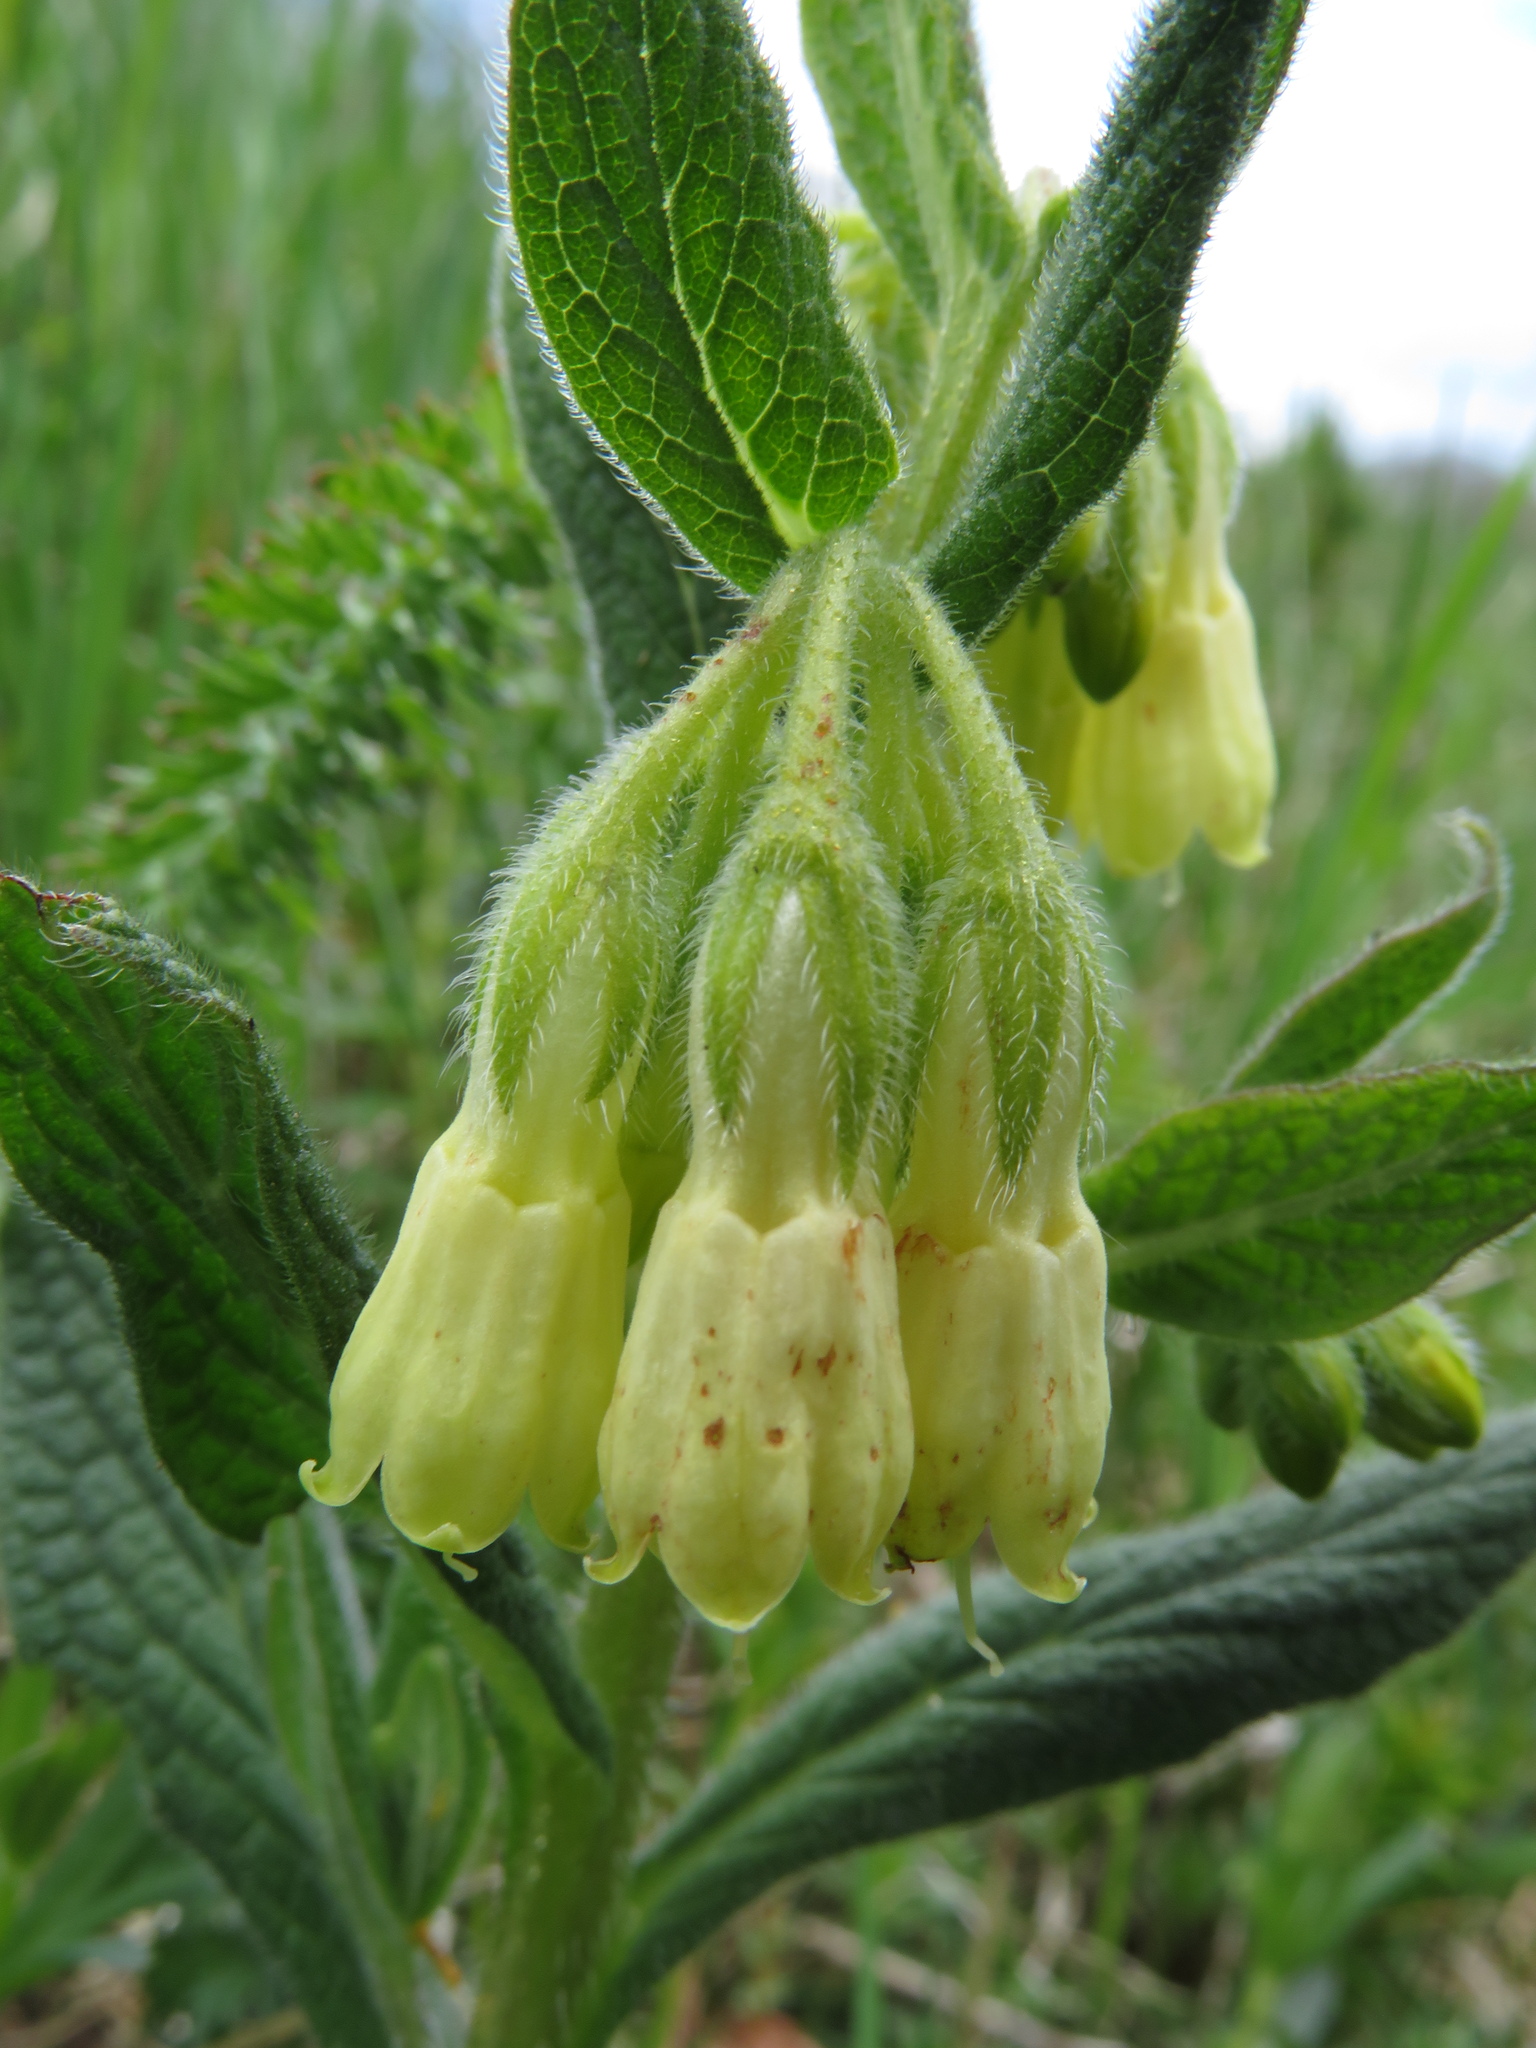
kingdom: Plantae
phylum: Tracheophyta
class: Magnoliopsida
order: Boraginales
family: Boraginaceae
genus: Symphytum
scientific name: Symphytum tuberosum
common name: Tuberous comfrey
